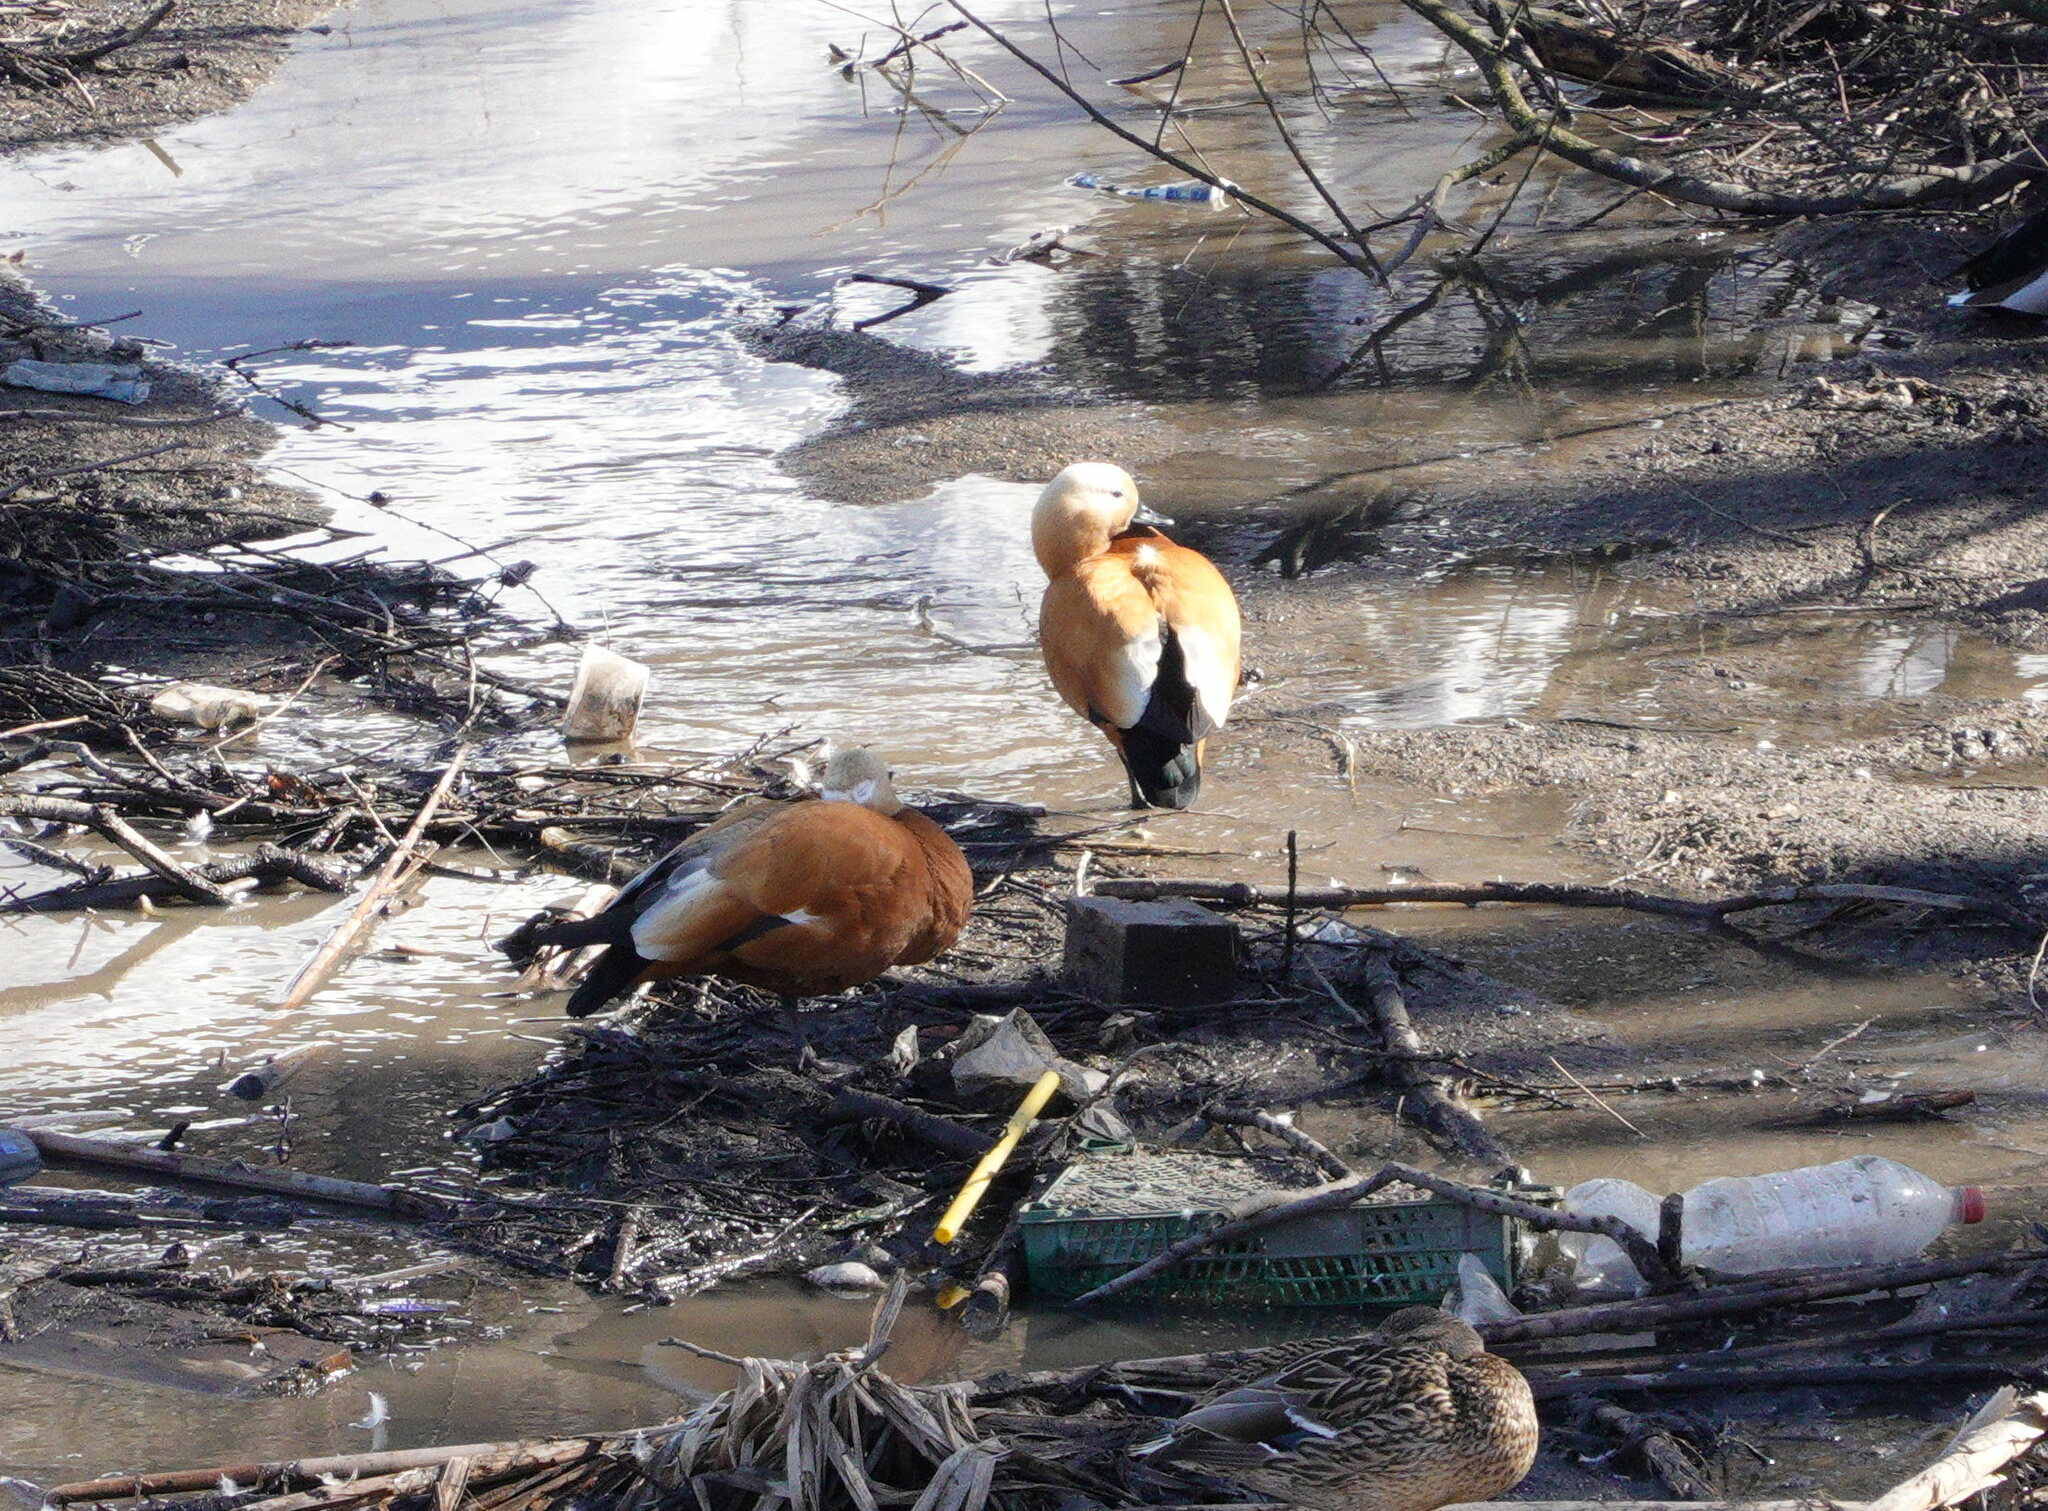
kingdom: Animalia
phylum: Chordata
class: Aves
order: Anseriformes
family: Anatidae
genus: Tadorna
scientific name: Tadorna ferruginea
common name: Ruddy shelduck
